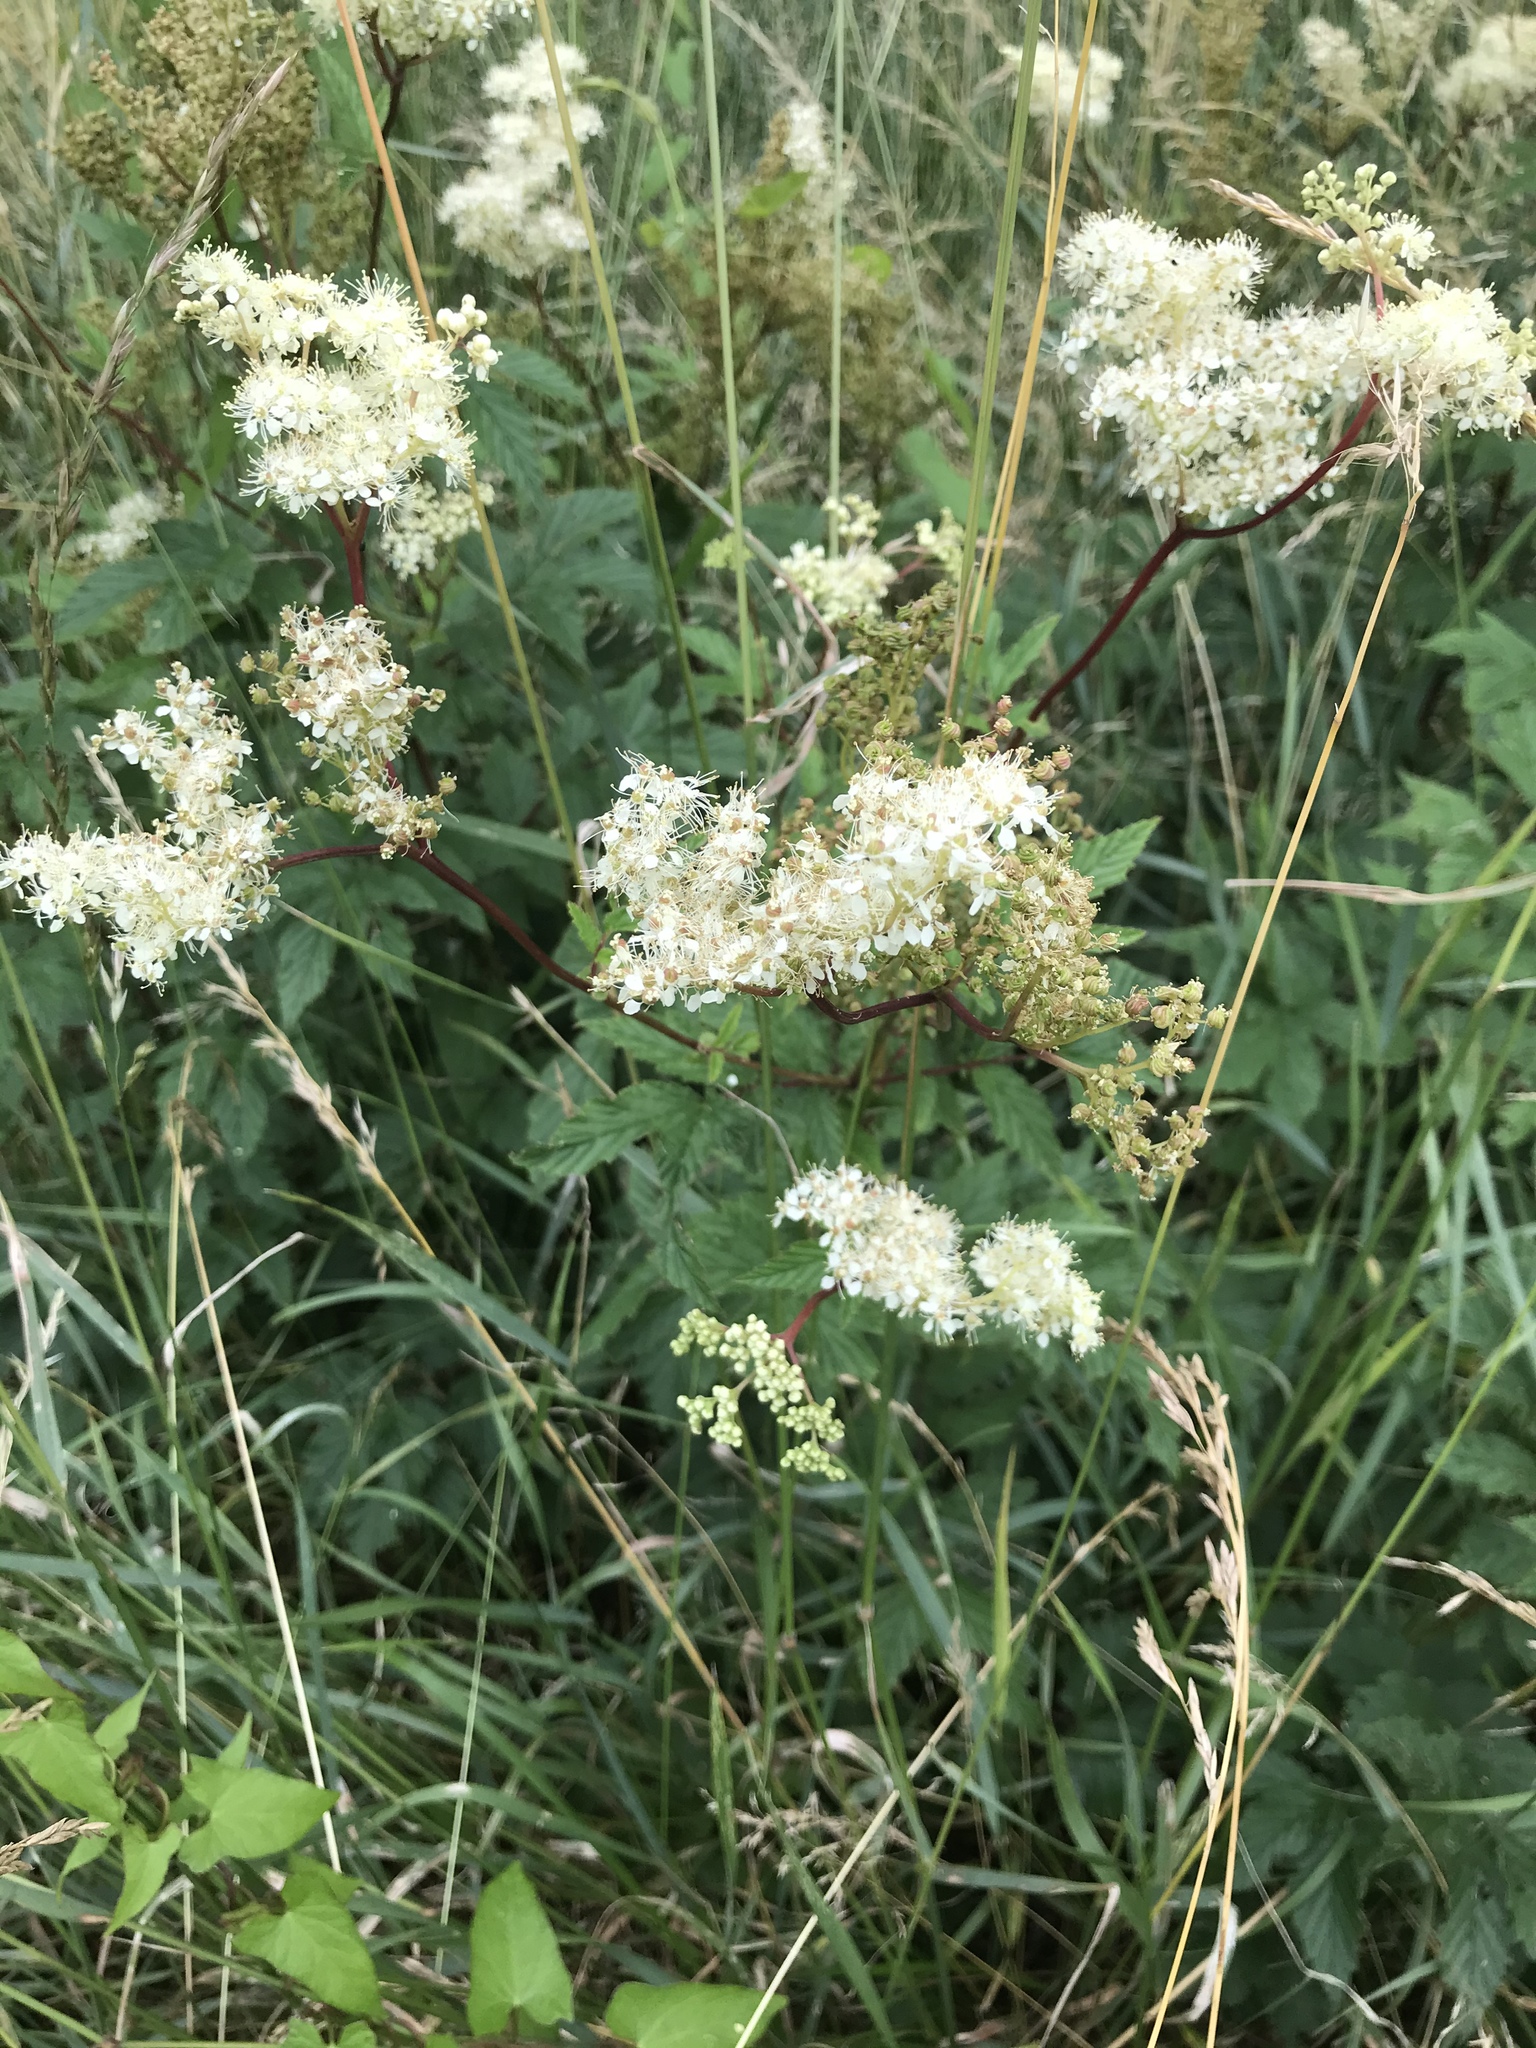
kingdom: Plantae
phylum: Tracheophyta
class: Magnoliopsida
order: Rosales
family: Rosaceae
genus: Filipendula
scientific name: Filipendula ulmaria
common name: Meadowsweet
